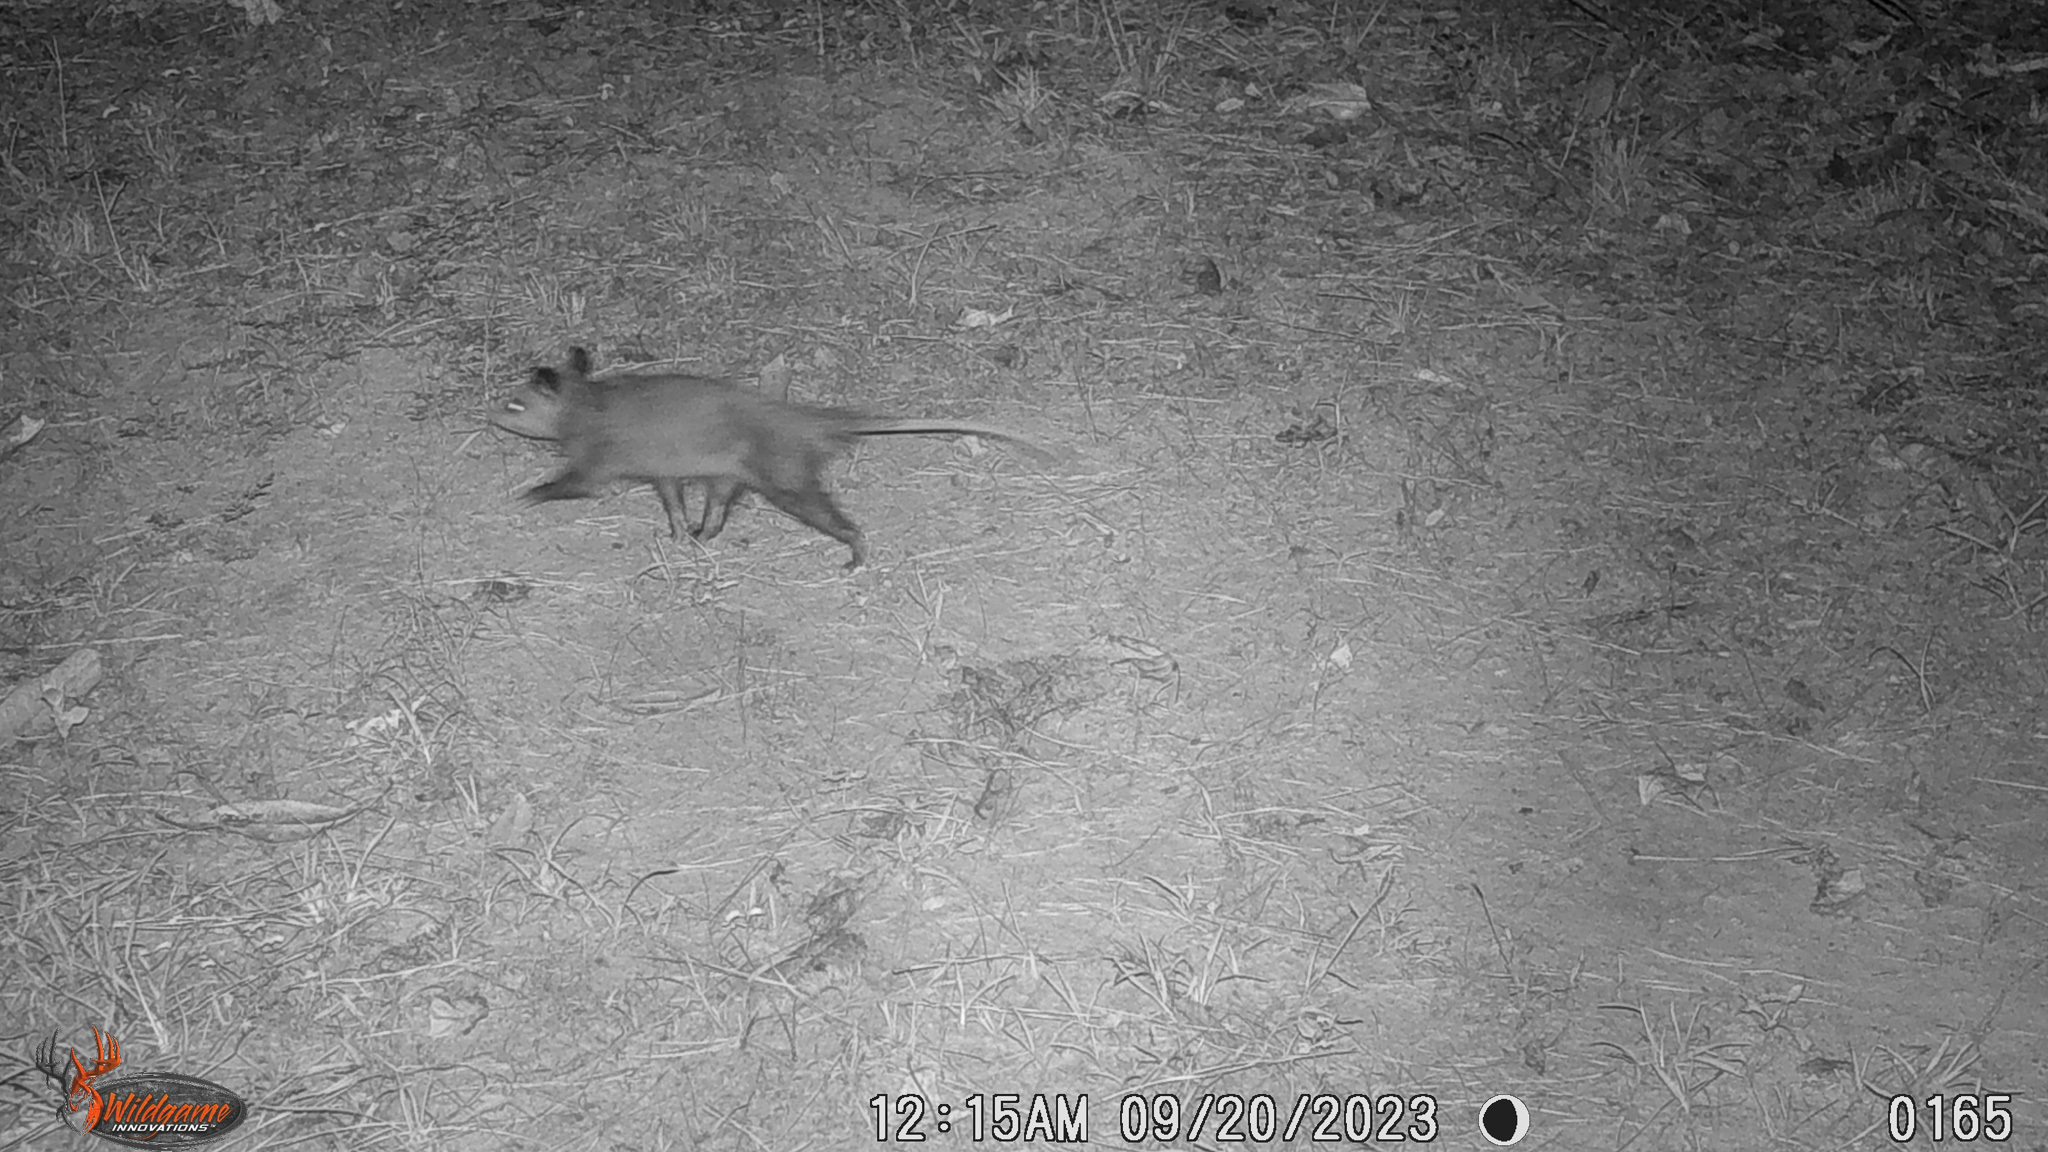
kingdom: Animalia
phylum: Chordata
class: Mammalia
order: Didelphimorphia
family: Didelphidae
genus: Didelphis
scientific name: Didelphis virginiana
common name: Virginia opossum
